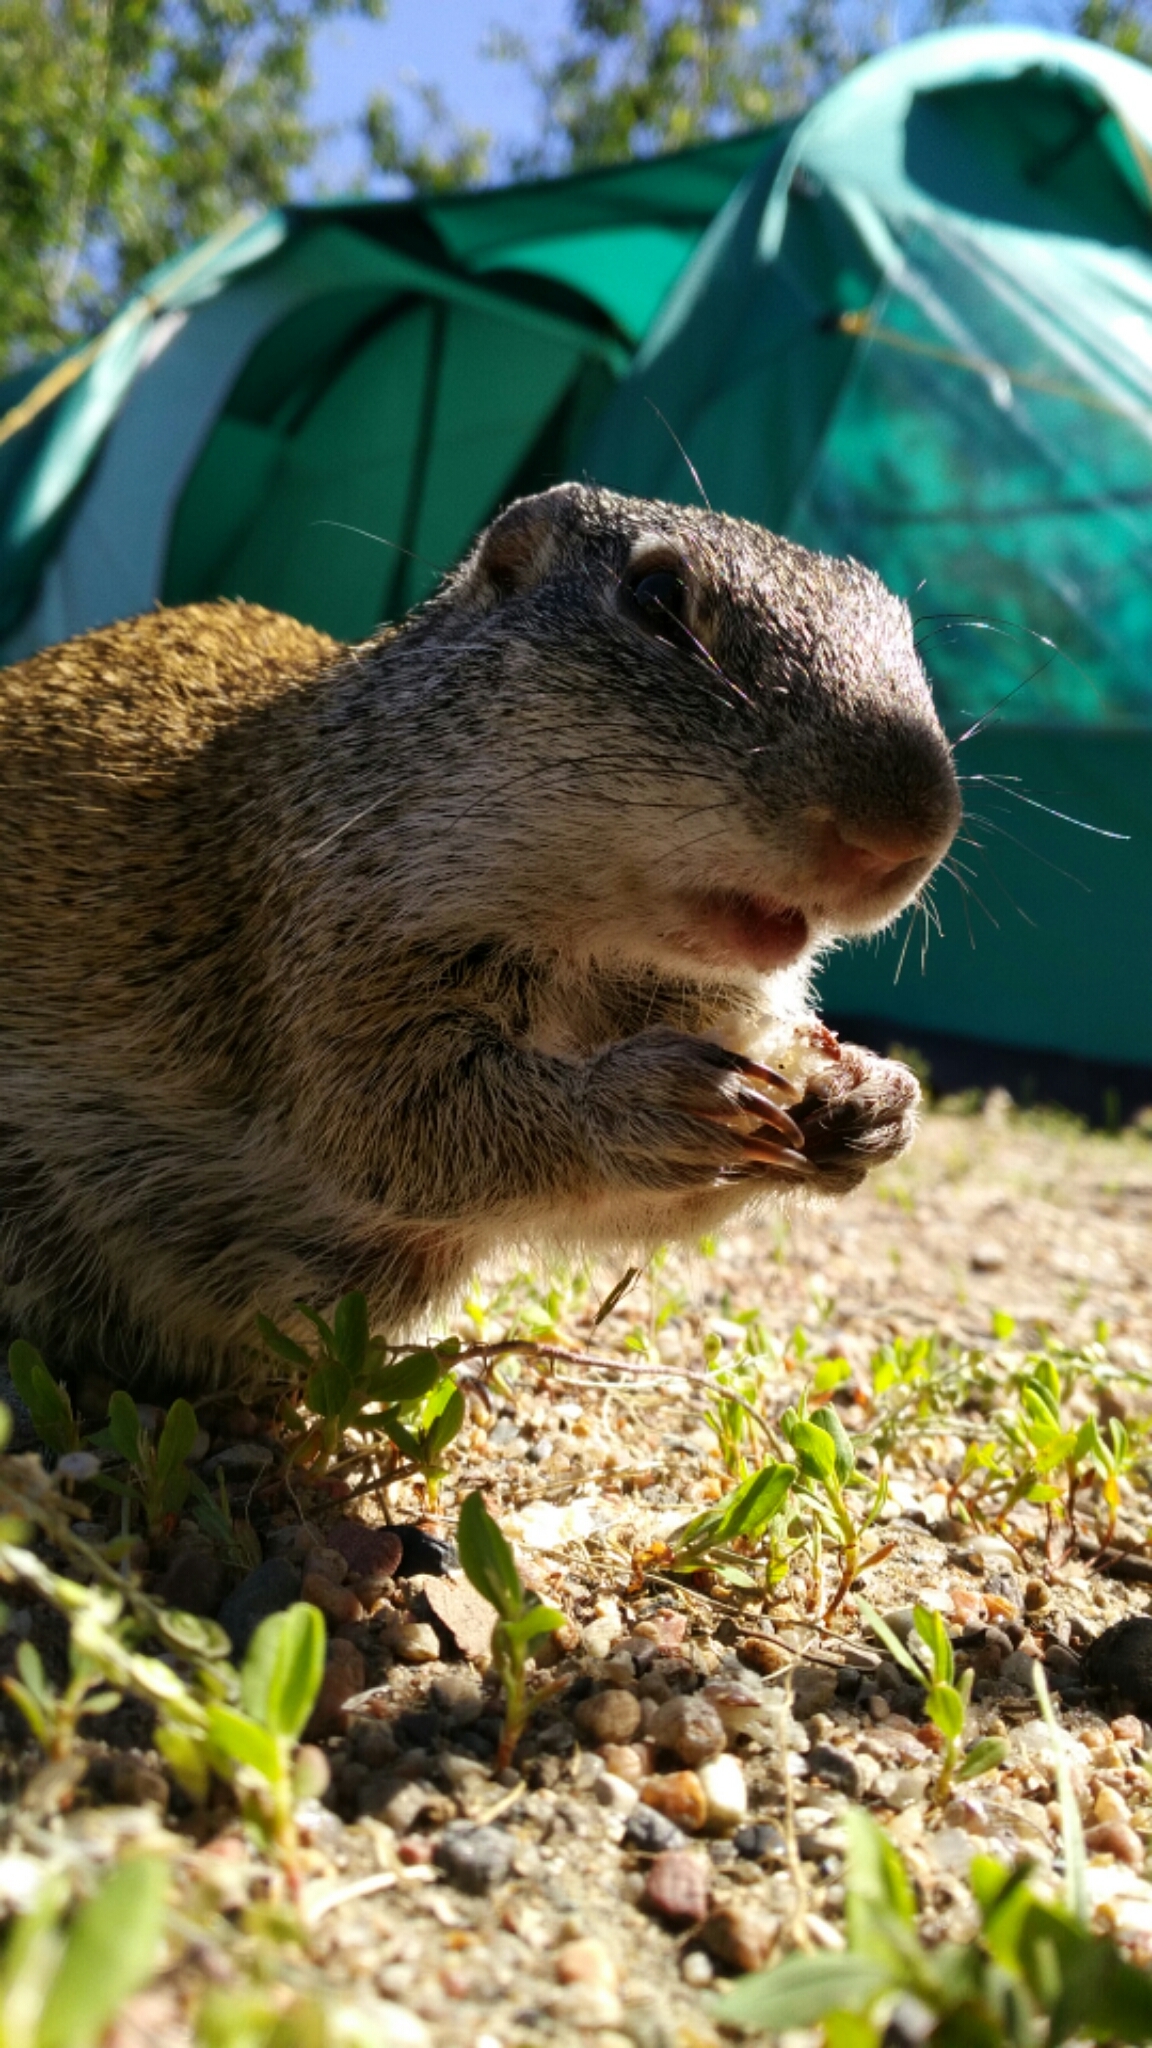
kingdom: Animalia
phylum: Chordata
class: Mammalia
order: Rodentia
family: Sciuridae
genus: Poliocitellus
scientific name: Poliocitellus franklinii
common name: Franklin's ground squirrel
